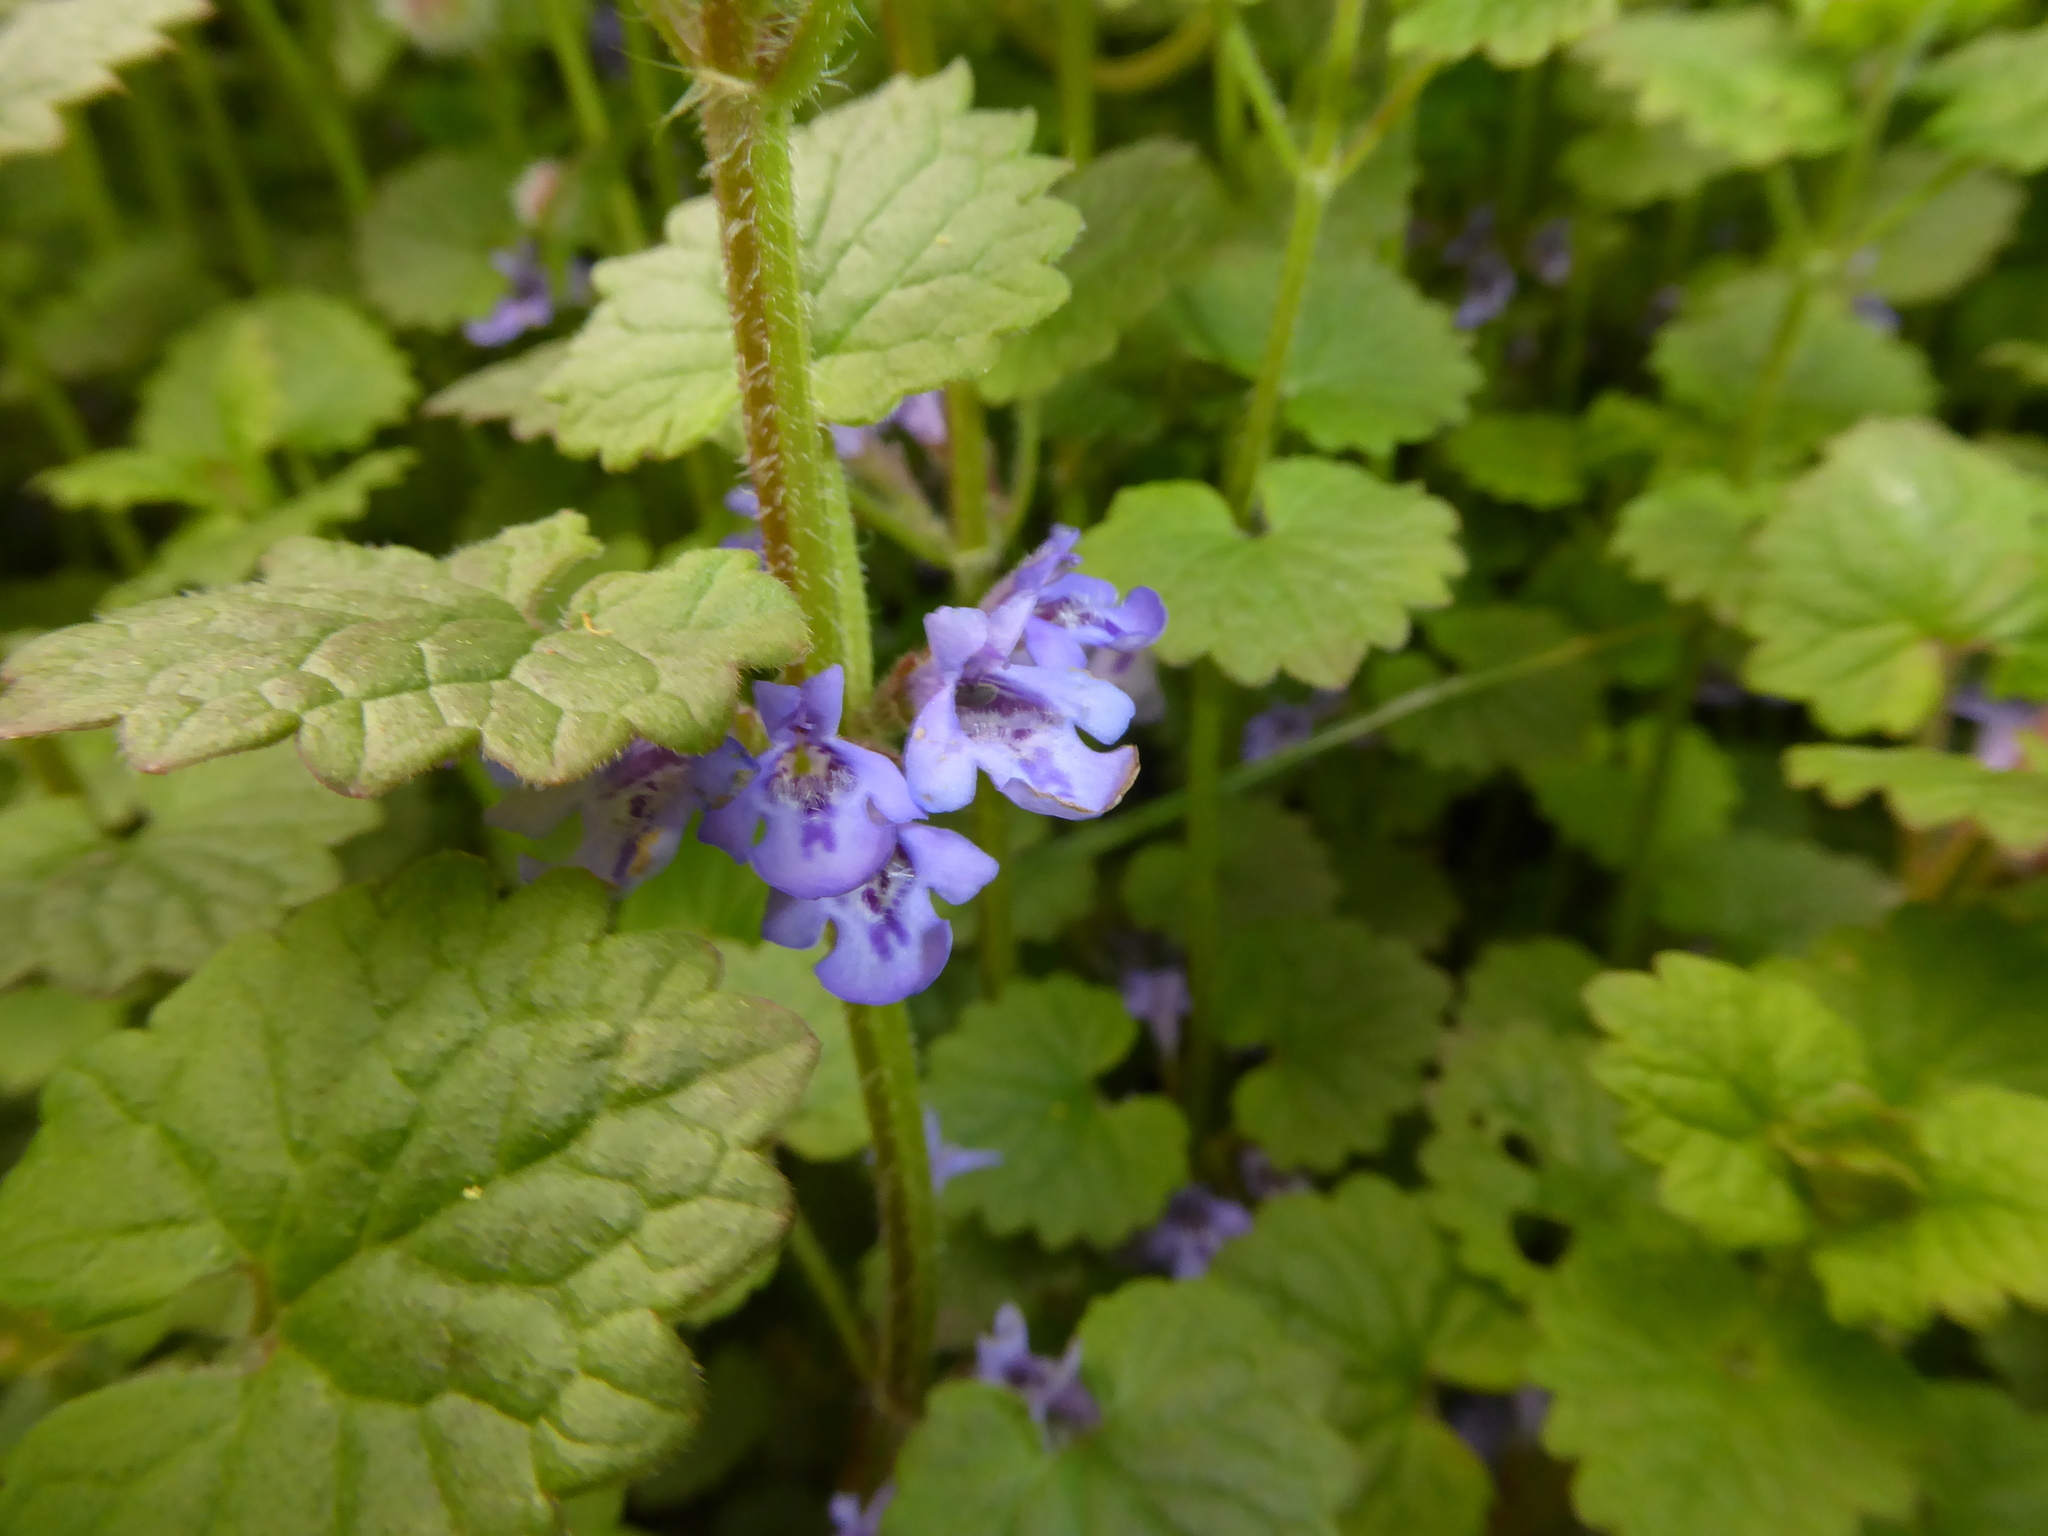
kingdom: Plantae
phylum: Tracheophyta
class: Magnoliopsida
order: Lamiales
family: Lamiaceae
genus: Glechoma
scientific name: Glechoma hederacea
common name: Ground ivy
